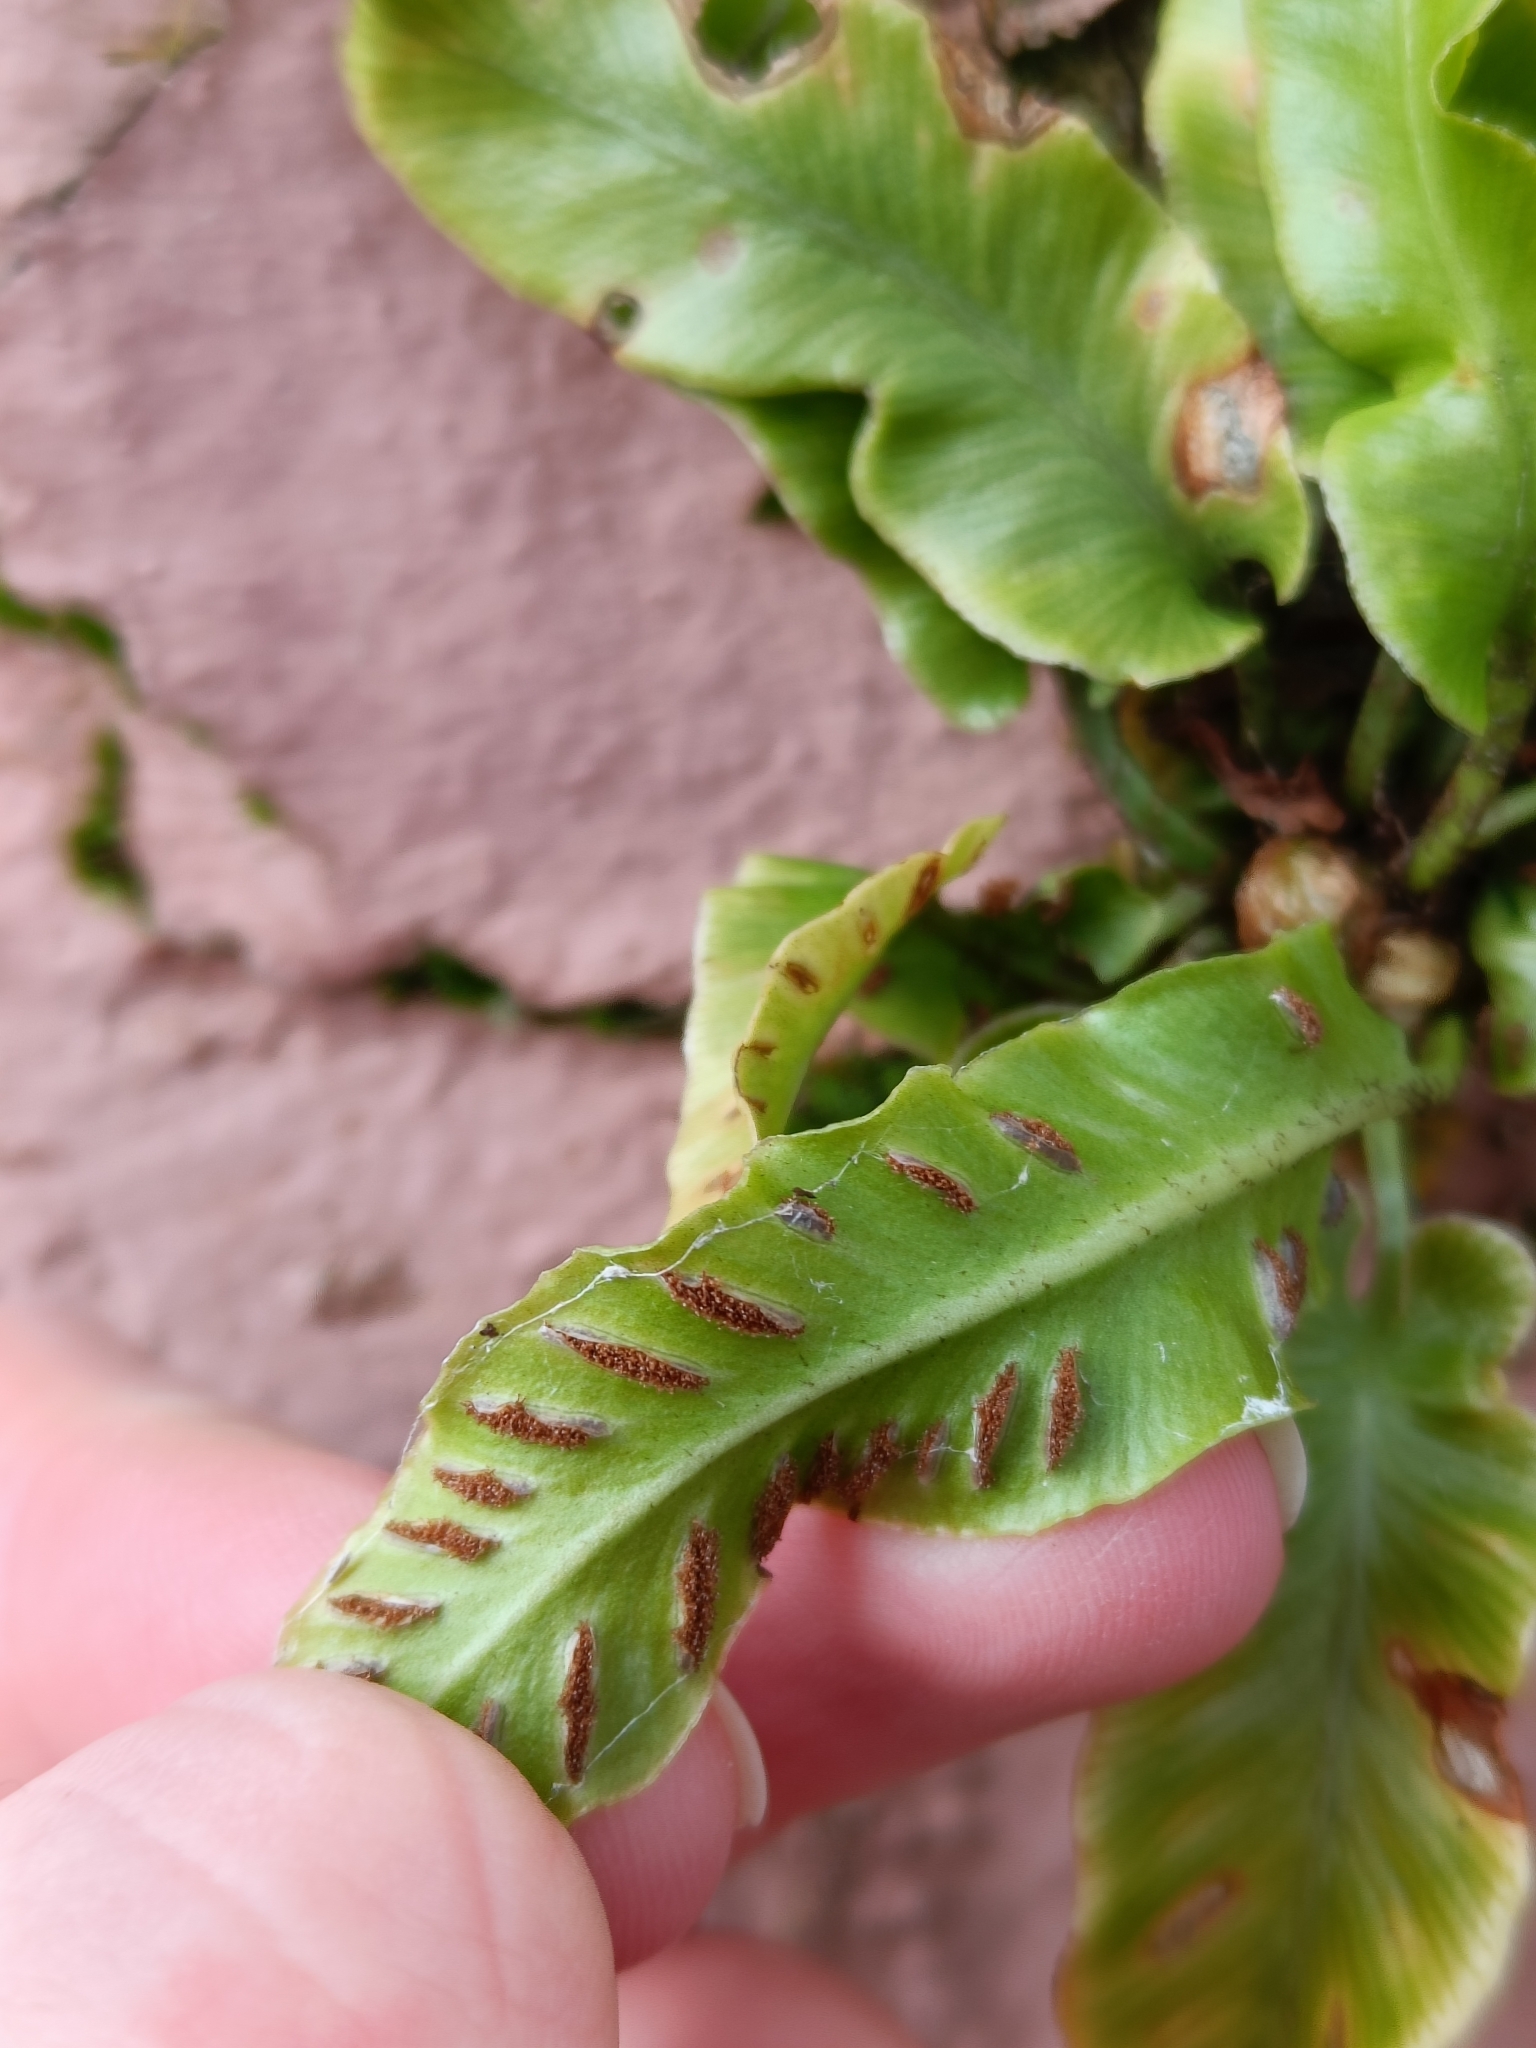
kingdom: Plantae
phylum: Tracheophyta
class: Polypodiopsida
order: Polypodiales
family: Aspleniaceae
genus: Asplenium
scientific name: Asplenium scolopendrium
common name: Hart's-tongue fern
